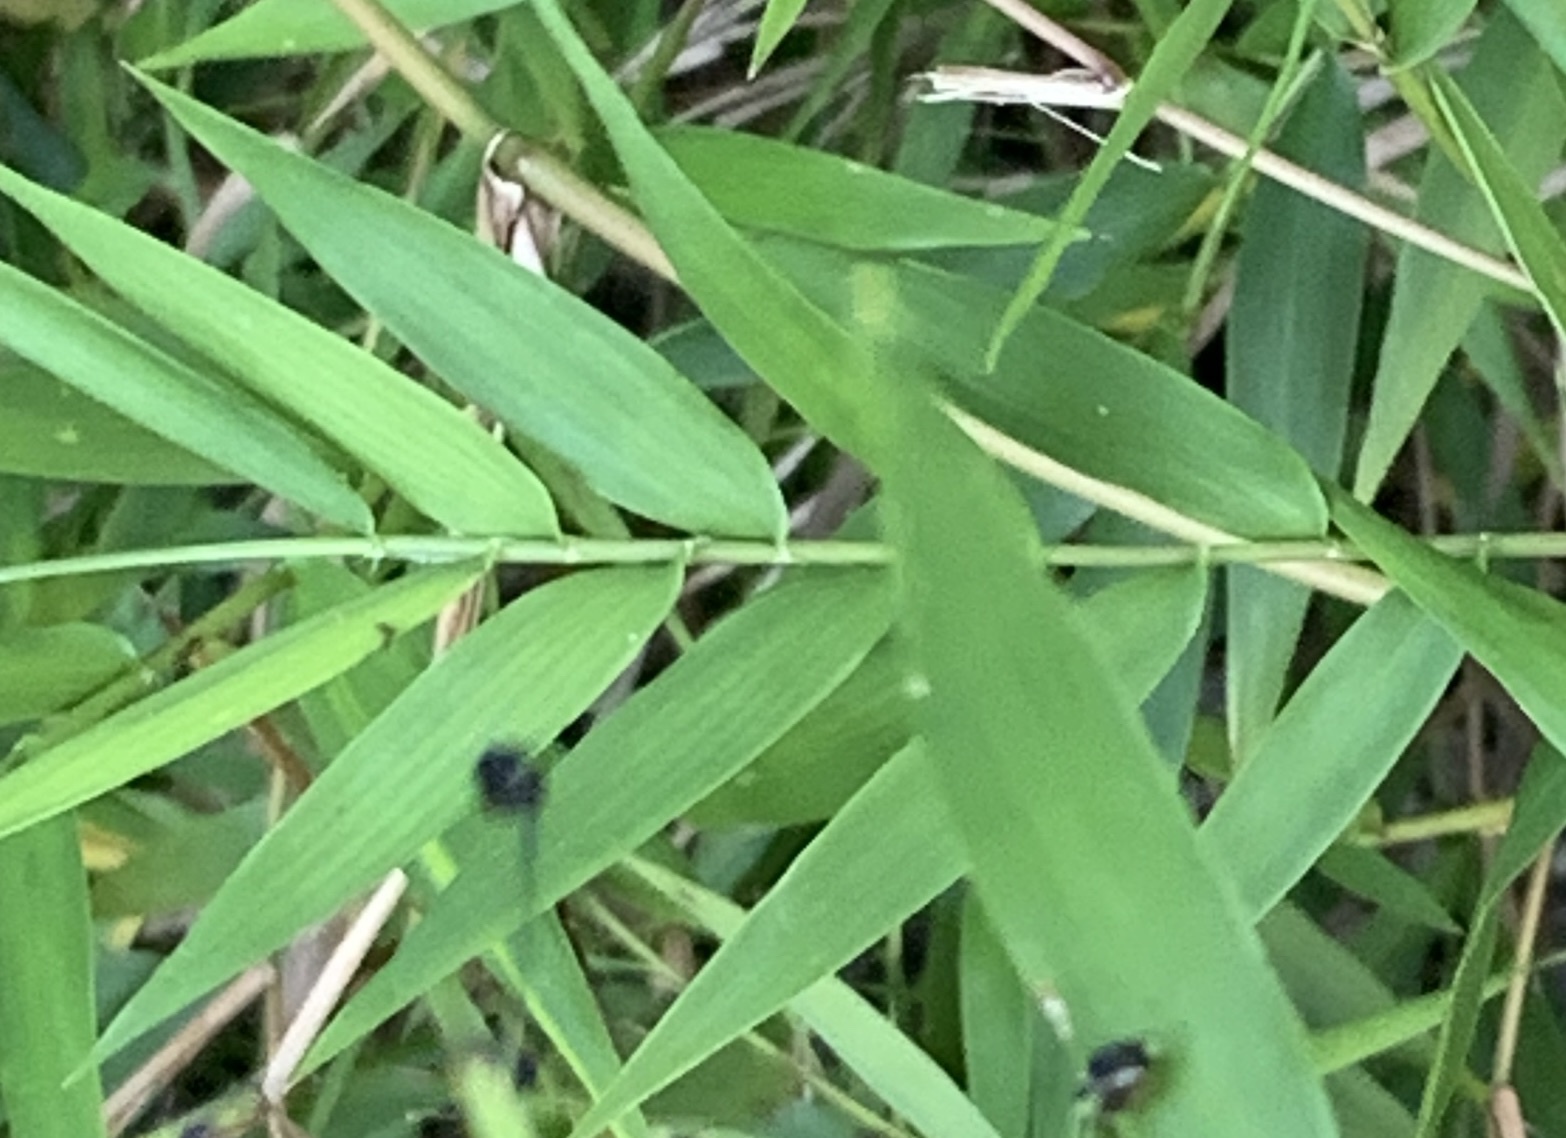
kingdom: Plantae
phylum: Tracheophyta
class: Liliopsida
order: Poales
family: Poaceae
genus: Lasiacis
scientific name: Lasiacis divaricata
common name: Smallcane
